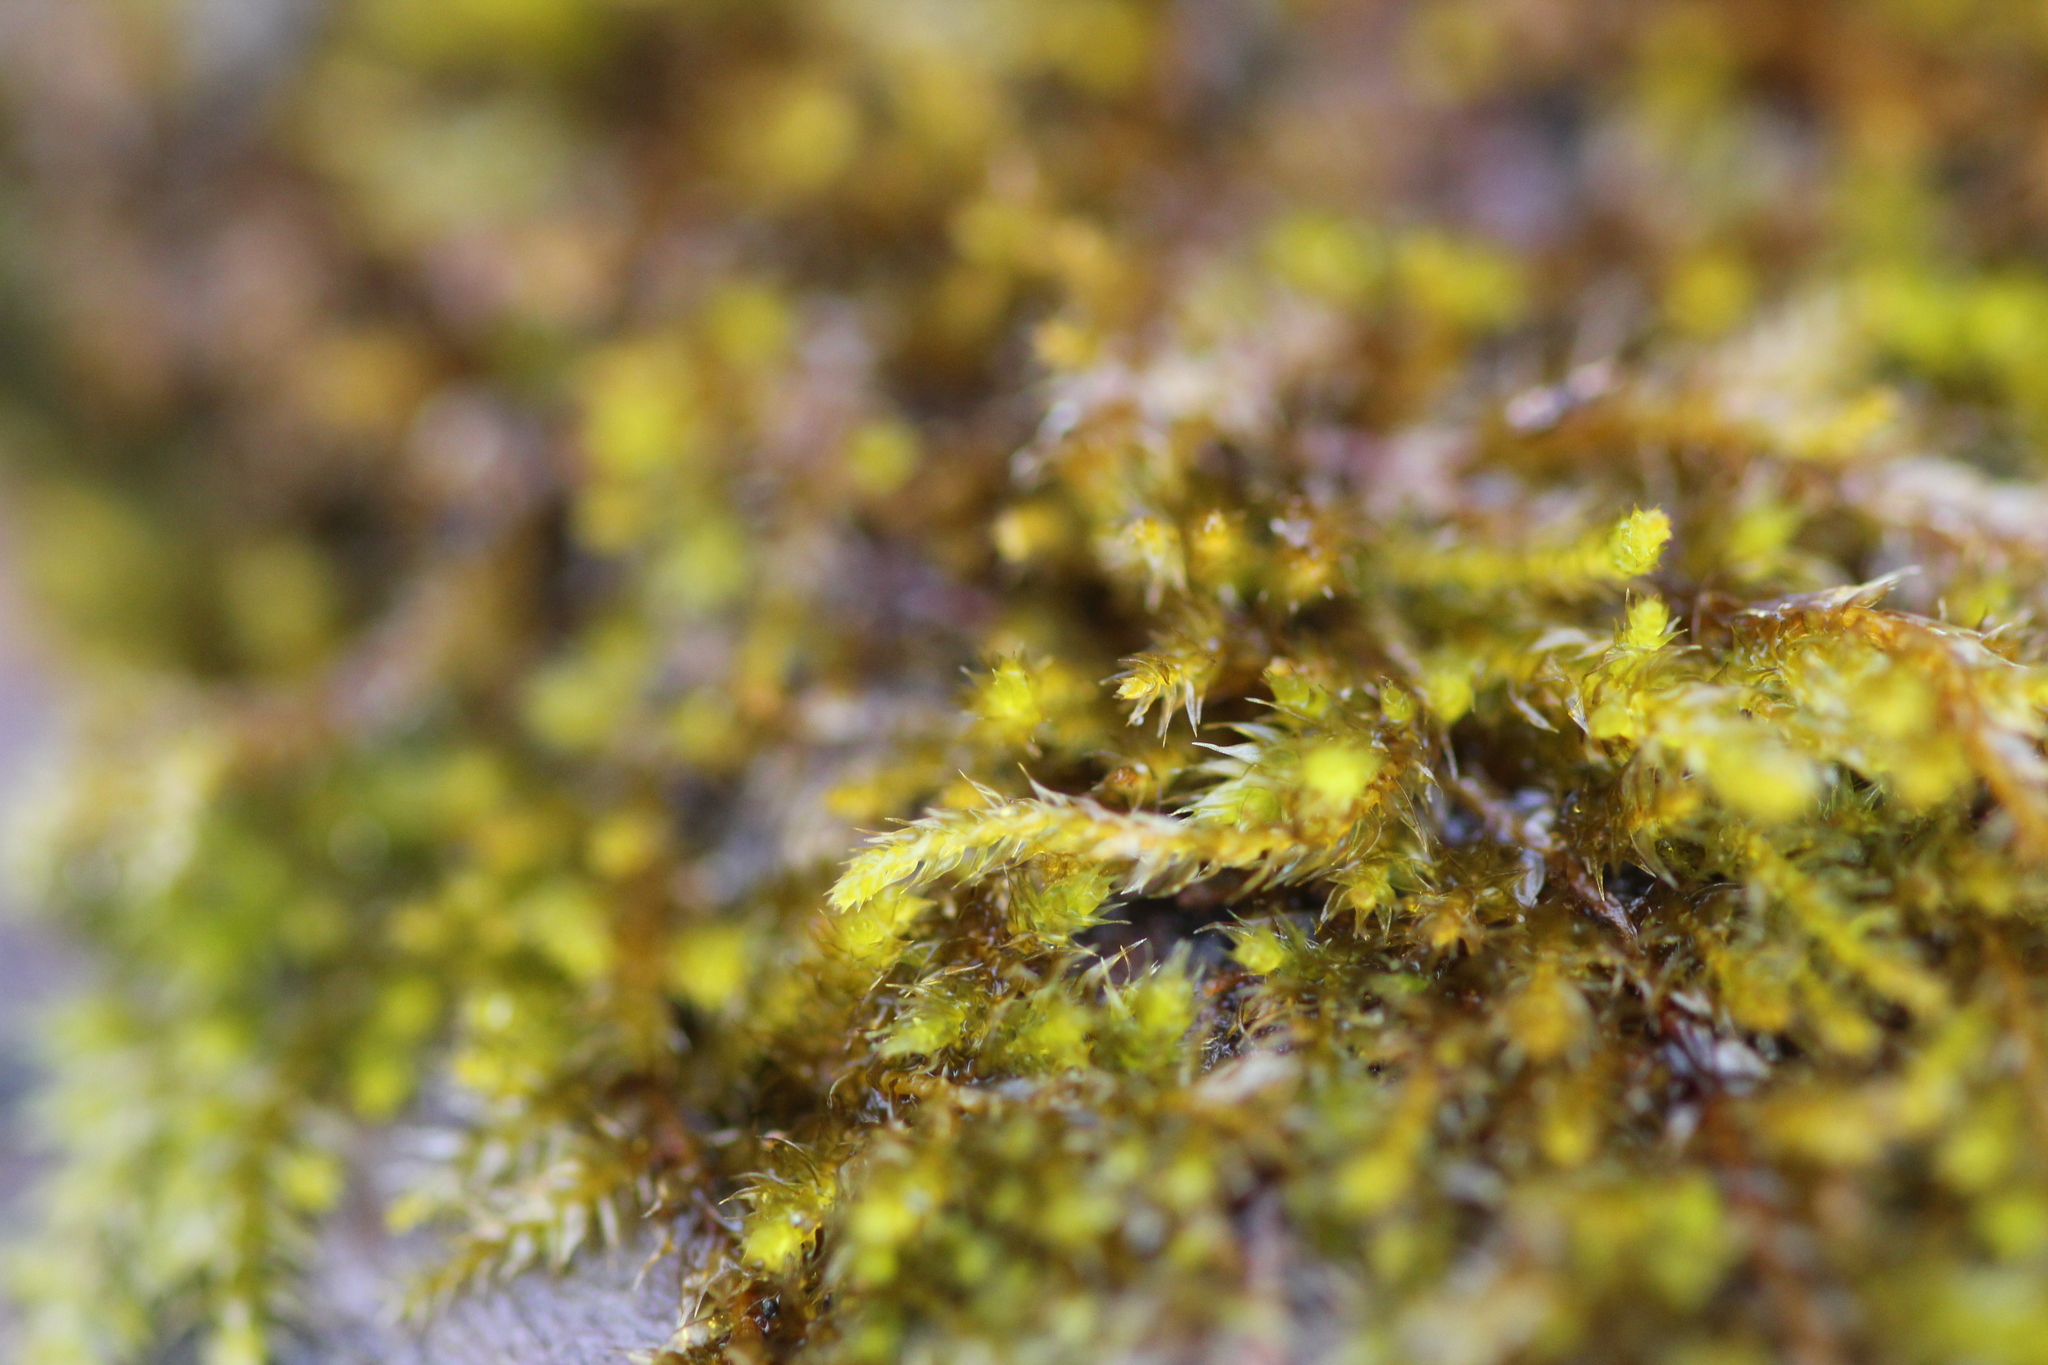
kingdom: Plantae
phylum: Bryophyta
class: Bryopsida
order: Hypnales
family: Pylaisiadelphaceae
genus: Platygyrium
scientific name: Platygyrium repens
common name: Flat-brocade moss
